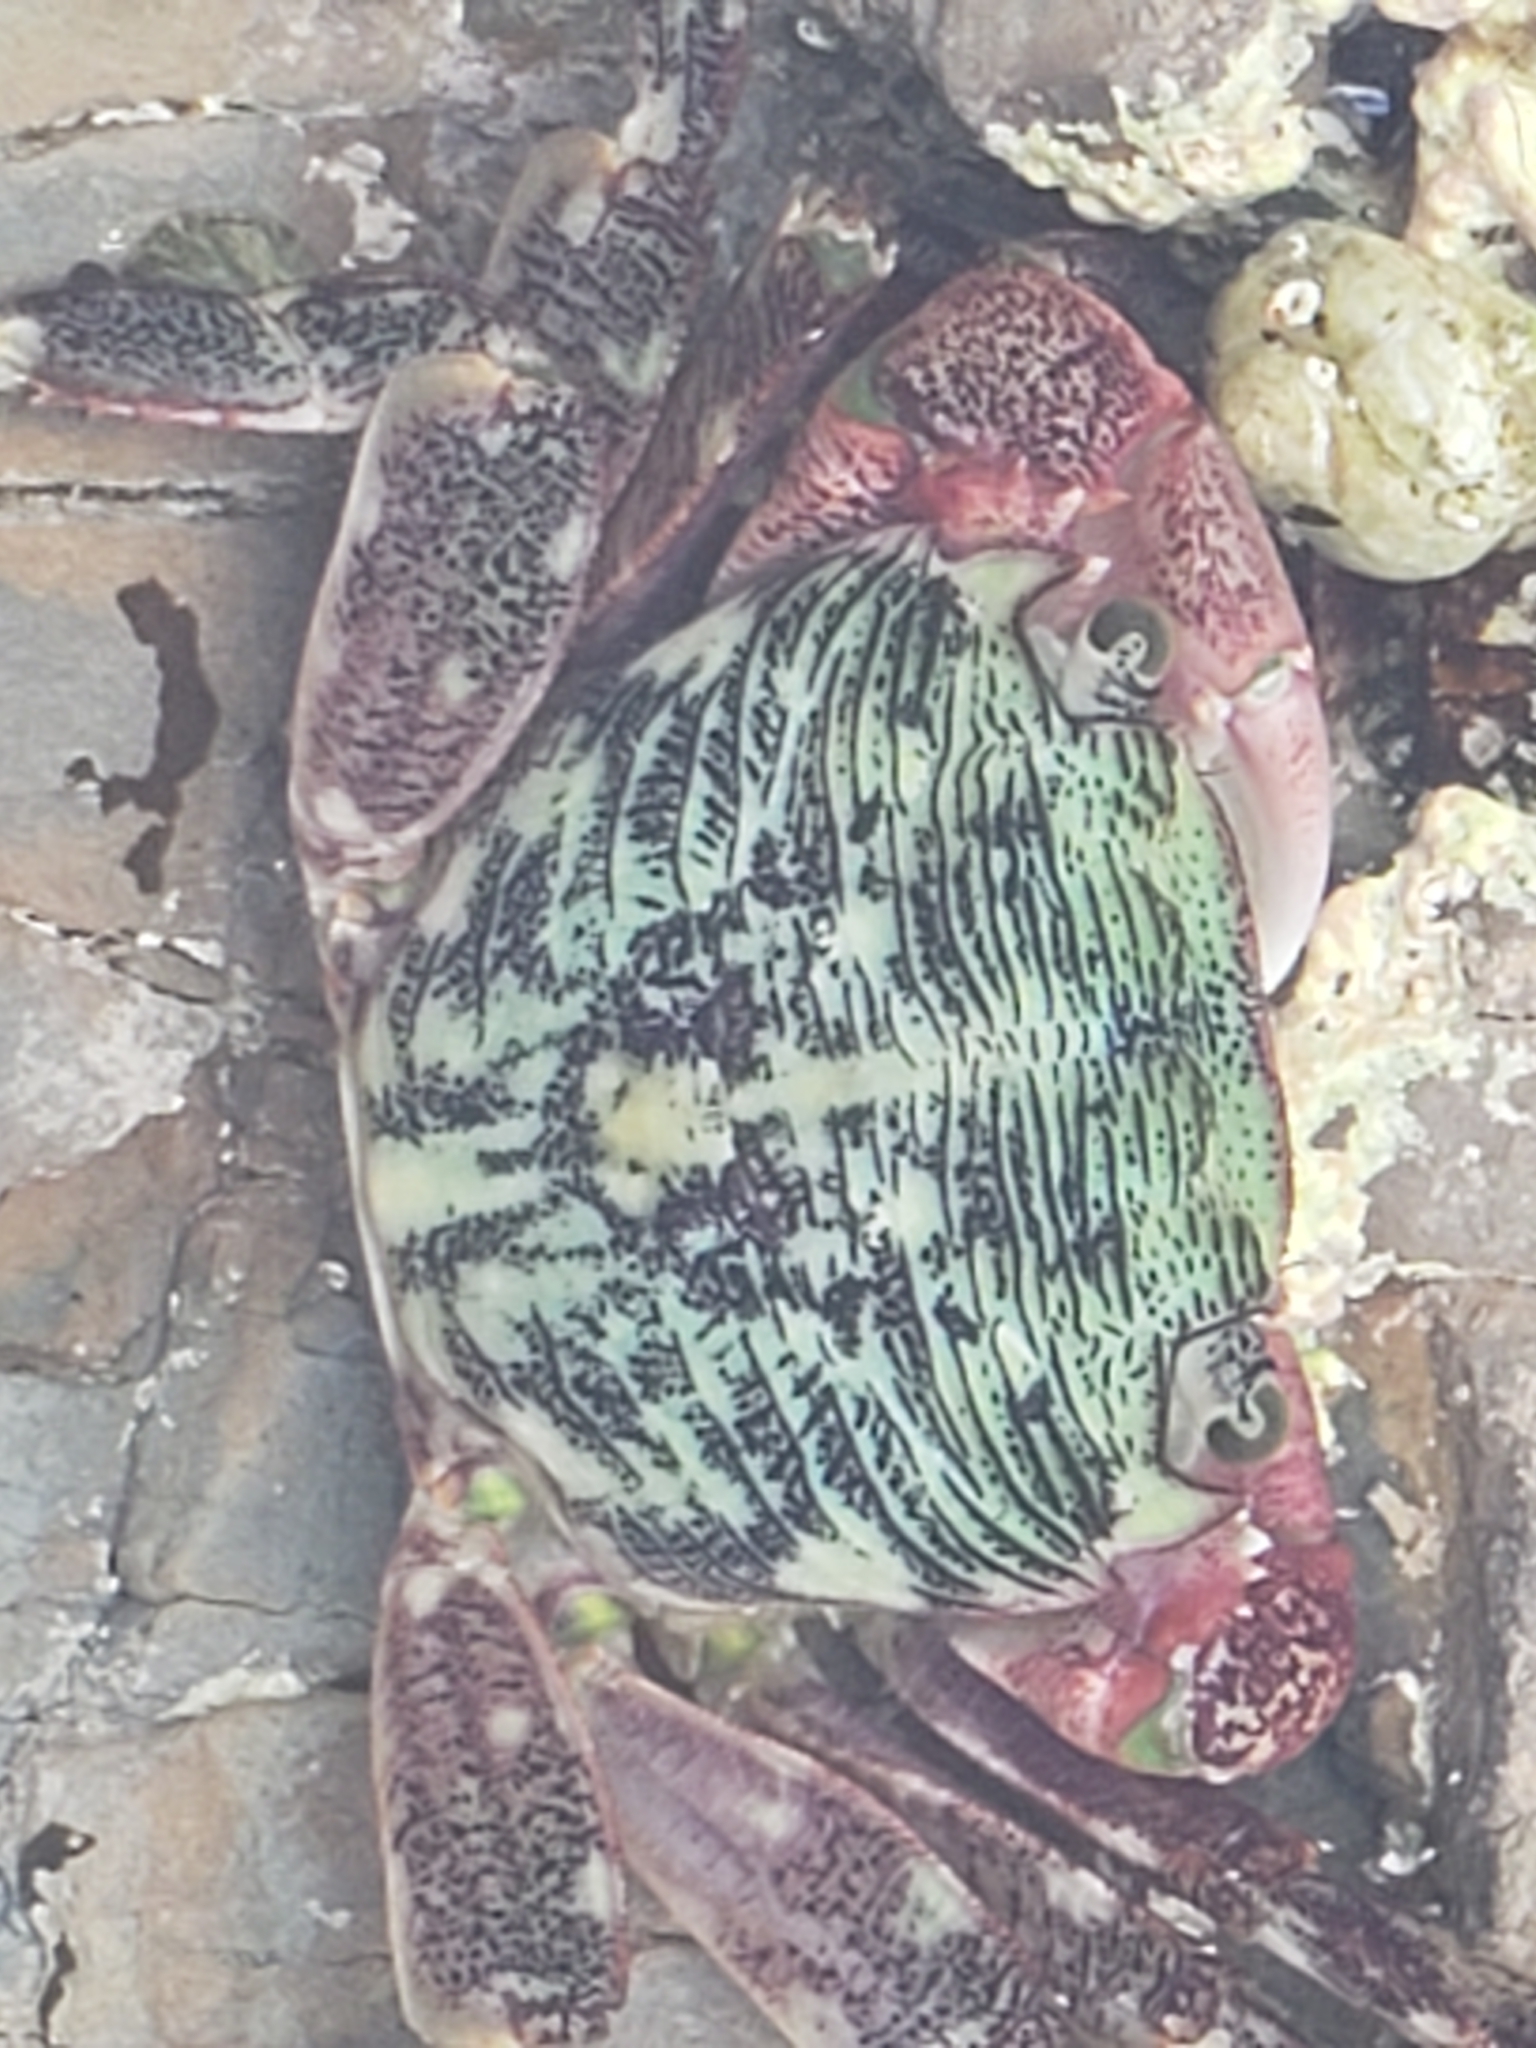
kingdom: Animalia
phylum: Arthropoda
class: Malacostraca
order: Decapoda
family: Grapsidae
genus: Pachygrapsus
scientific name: Pachygrapsus crassipes
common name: Striped shore crab
